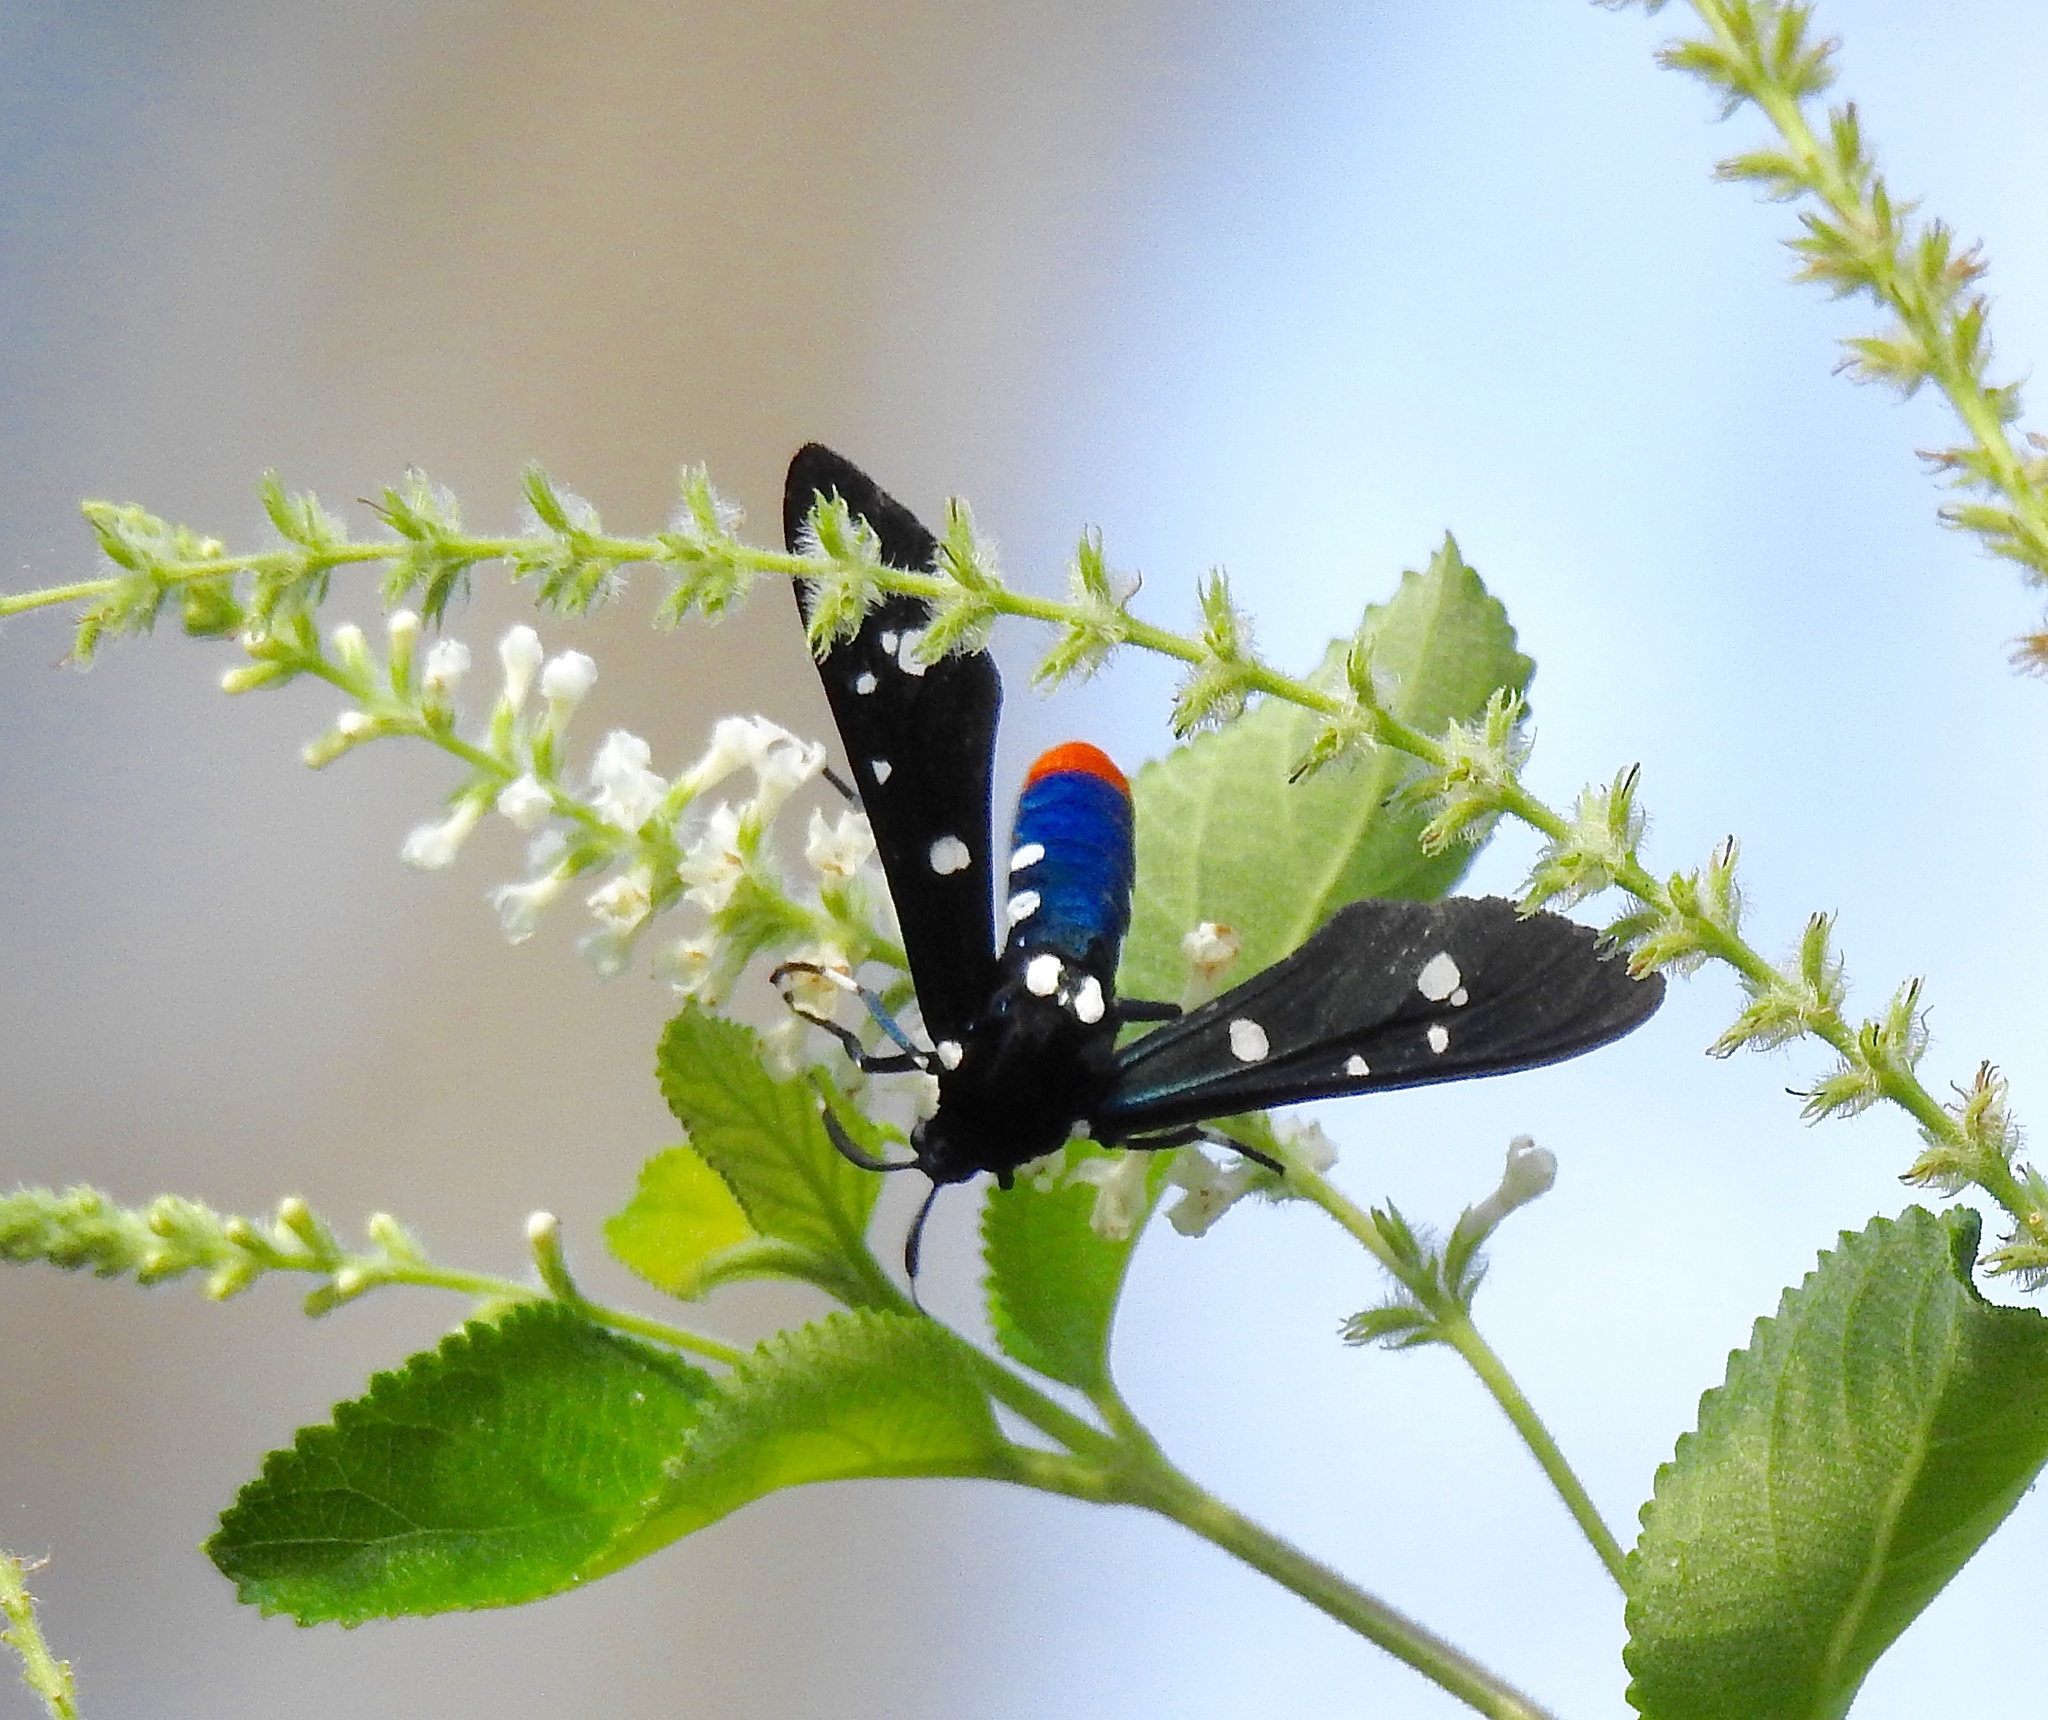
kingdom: Animalia
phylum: Arthropoda
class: Insecta
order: Lepidoptera
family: Erebidae
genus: Syntomeida
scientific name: Syntomeida epilais
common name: Polka-dot wasp moth
